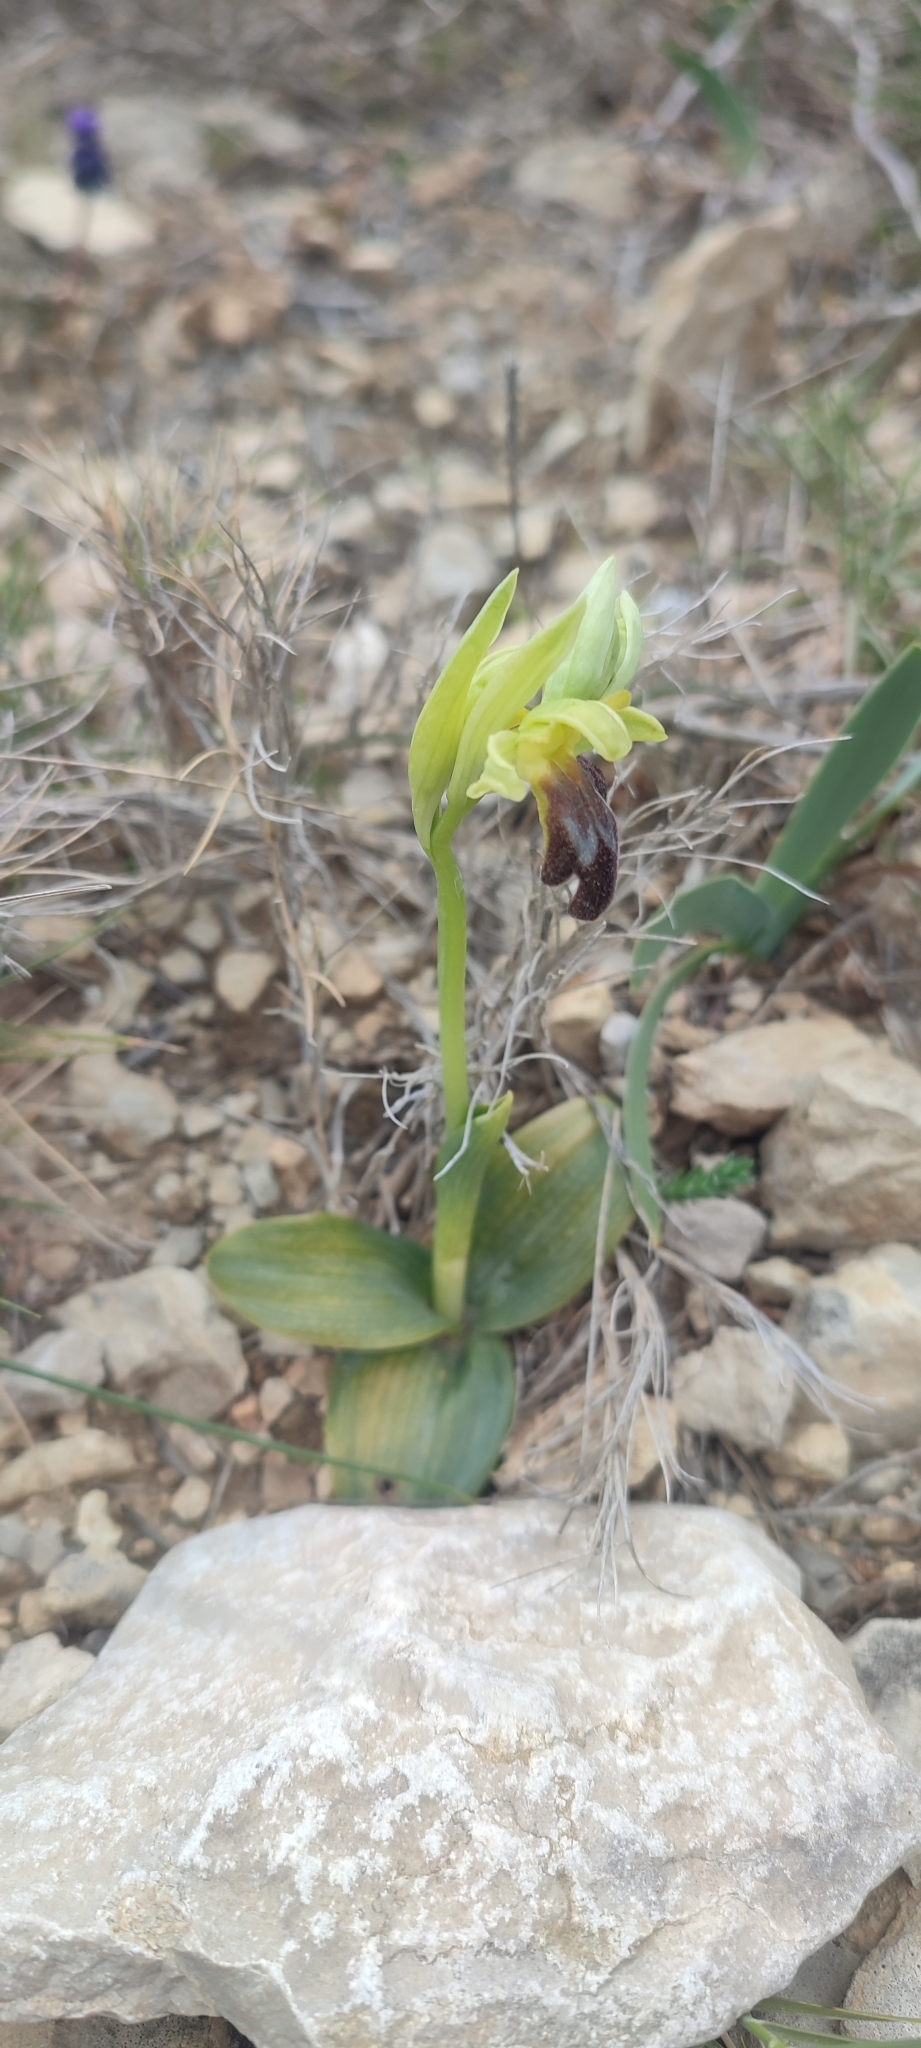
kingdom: Plantae
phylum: Tracheophyta
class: Liliopsida
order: Asparagales
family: Orchidaceae
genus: Ophrys
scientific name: Ophrys fusca
